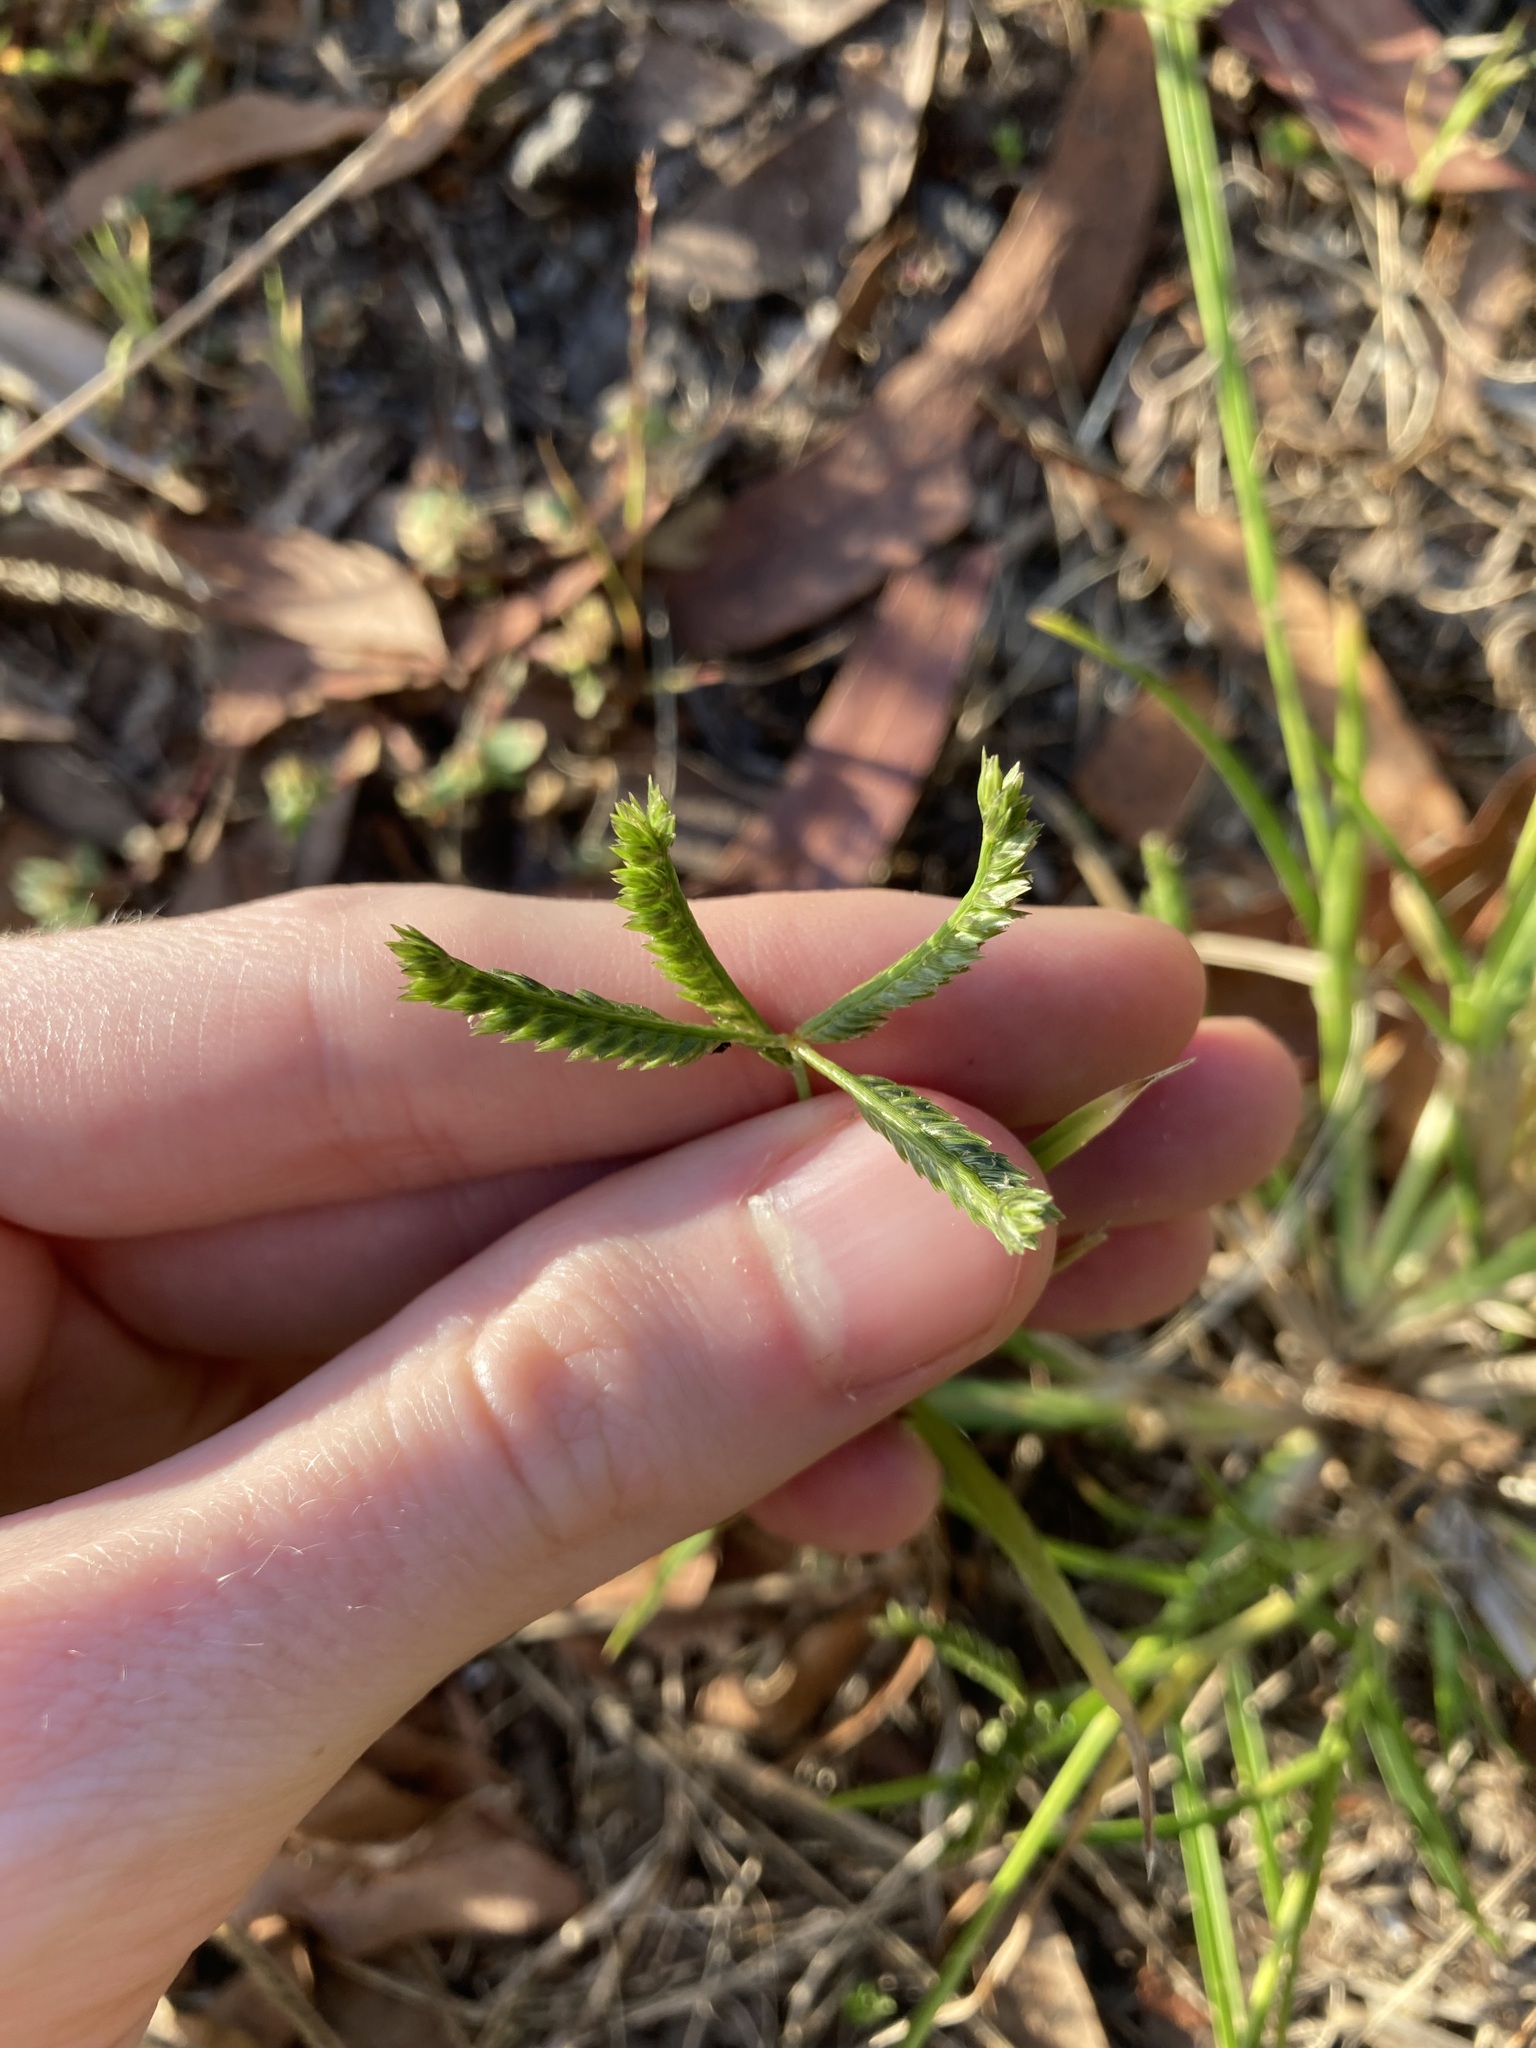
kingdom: Plantae
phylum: Tracheophyta
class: Liliopsida
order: Poales
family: Poaceae
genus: Eleusine
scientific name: Eleusine indica
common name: Yard-grass
